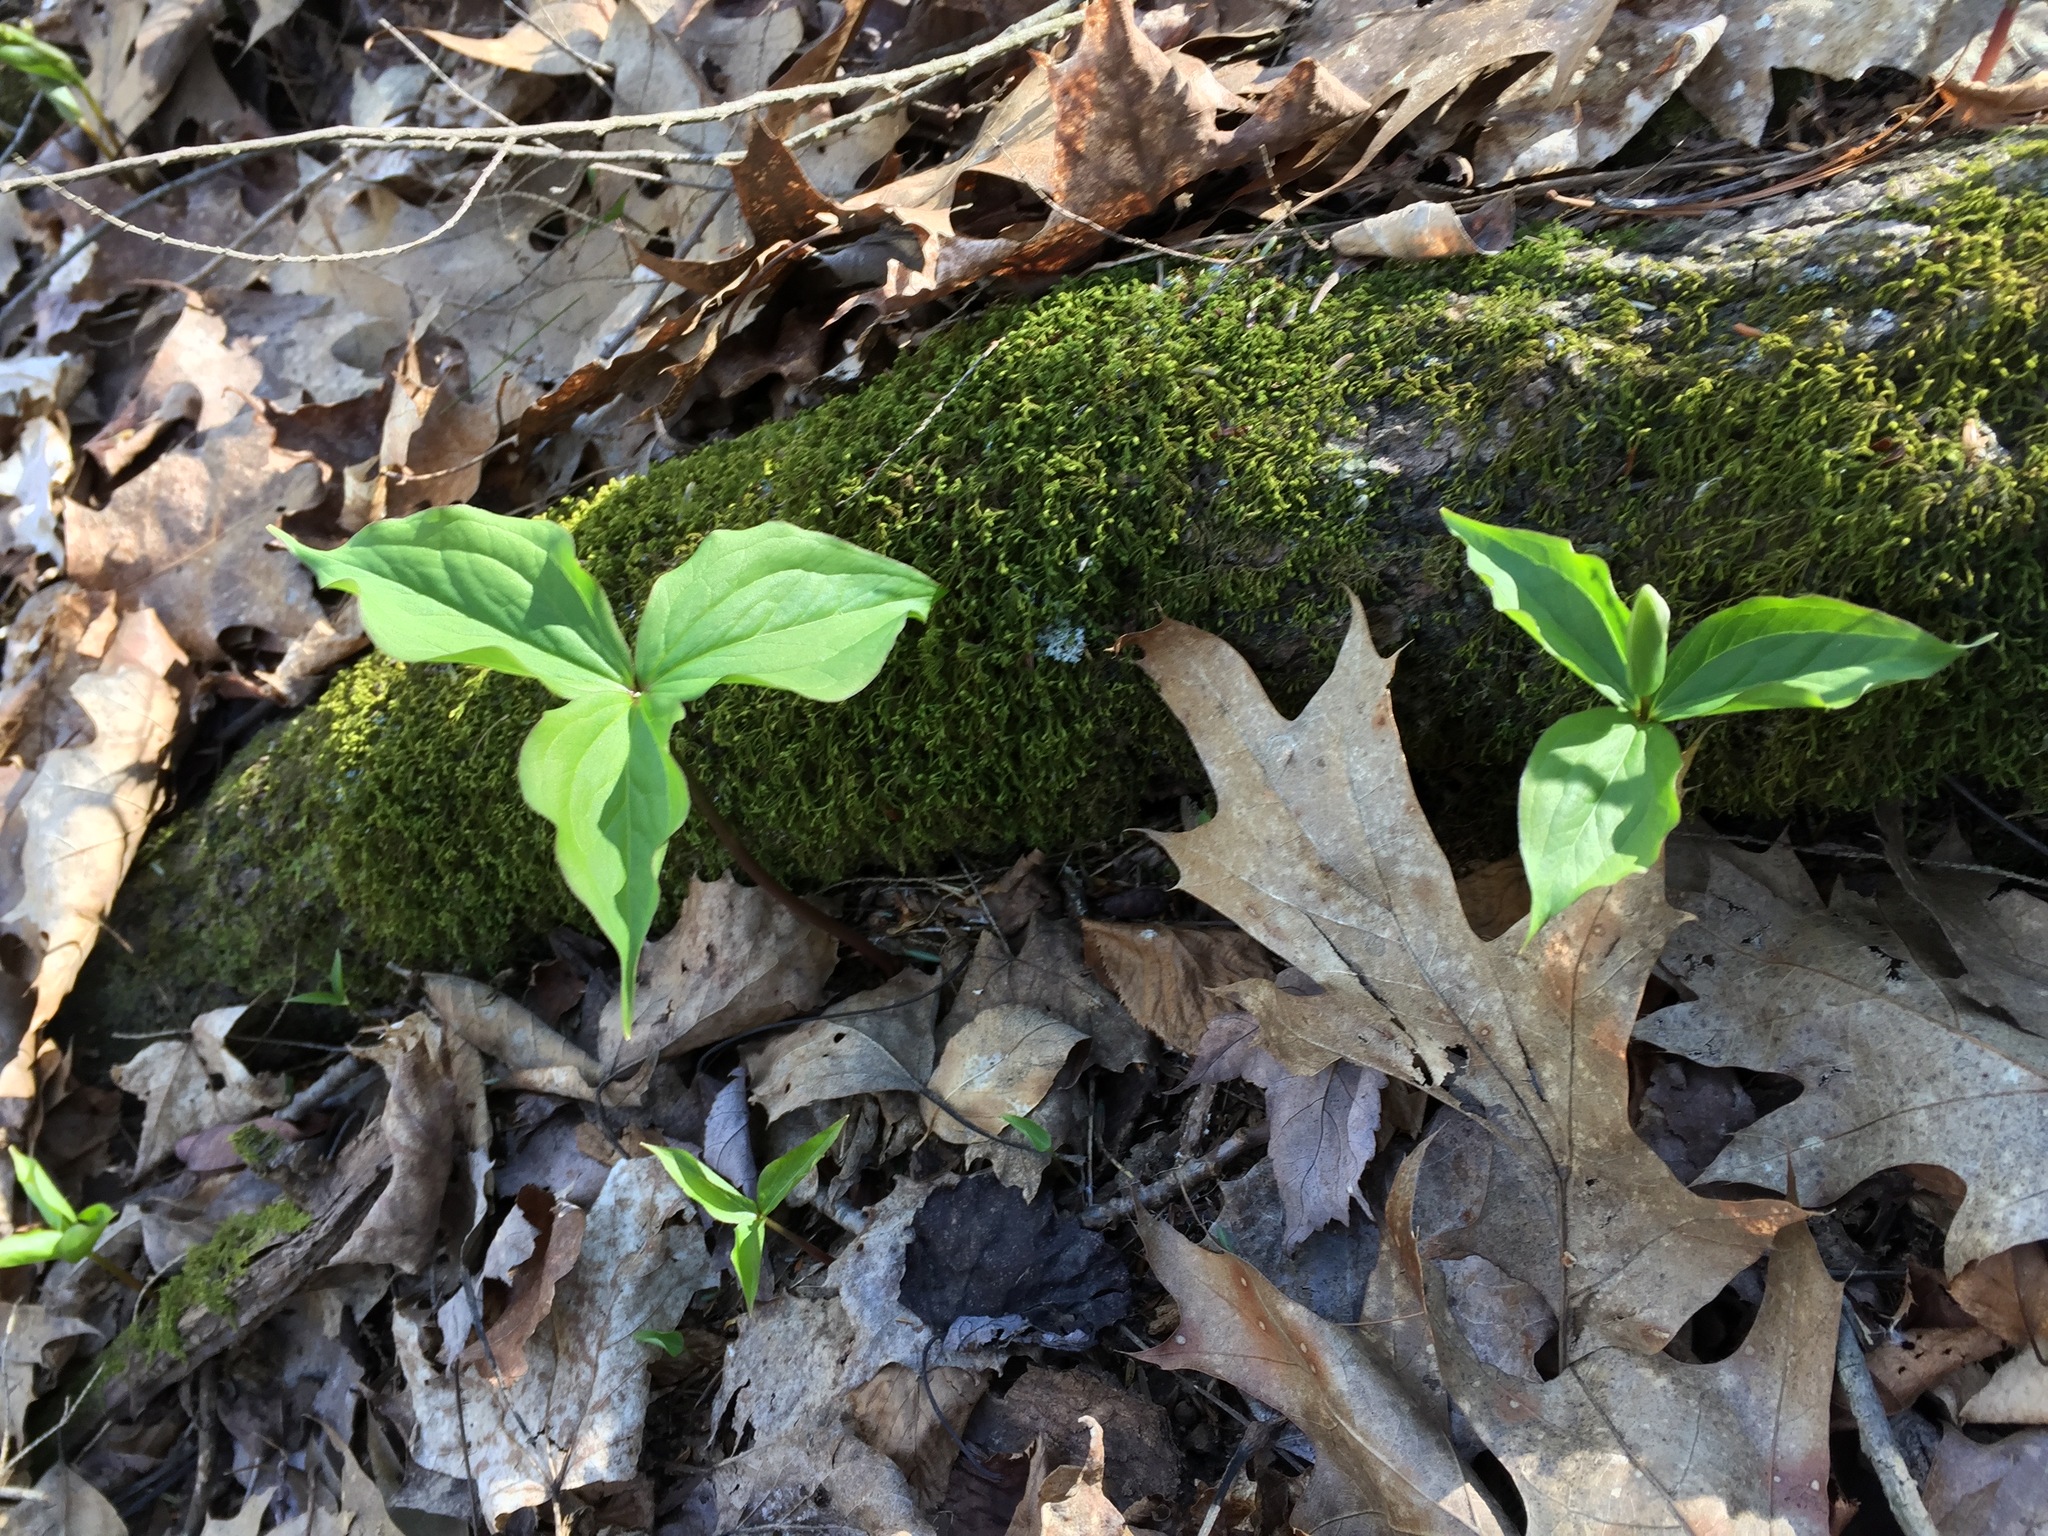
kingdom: Plantae
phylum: Tracheophyta
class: Liliopsida
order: Liliales
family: Melanthiaceae
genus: Trillium
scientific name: Trillium grandiflorum
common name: Great white trillium
